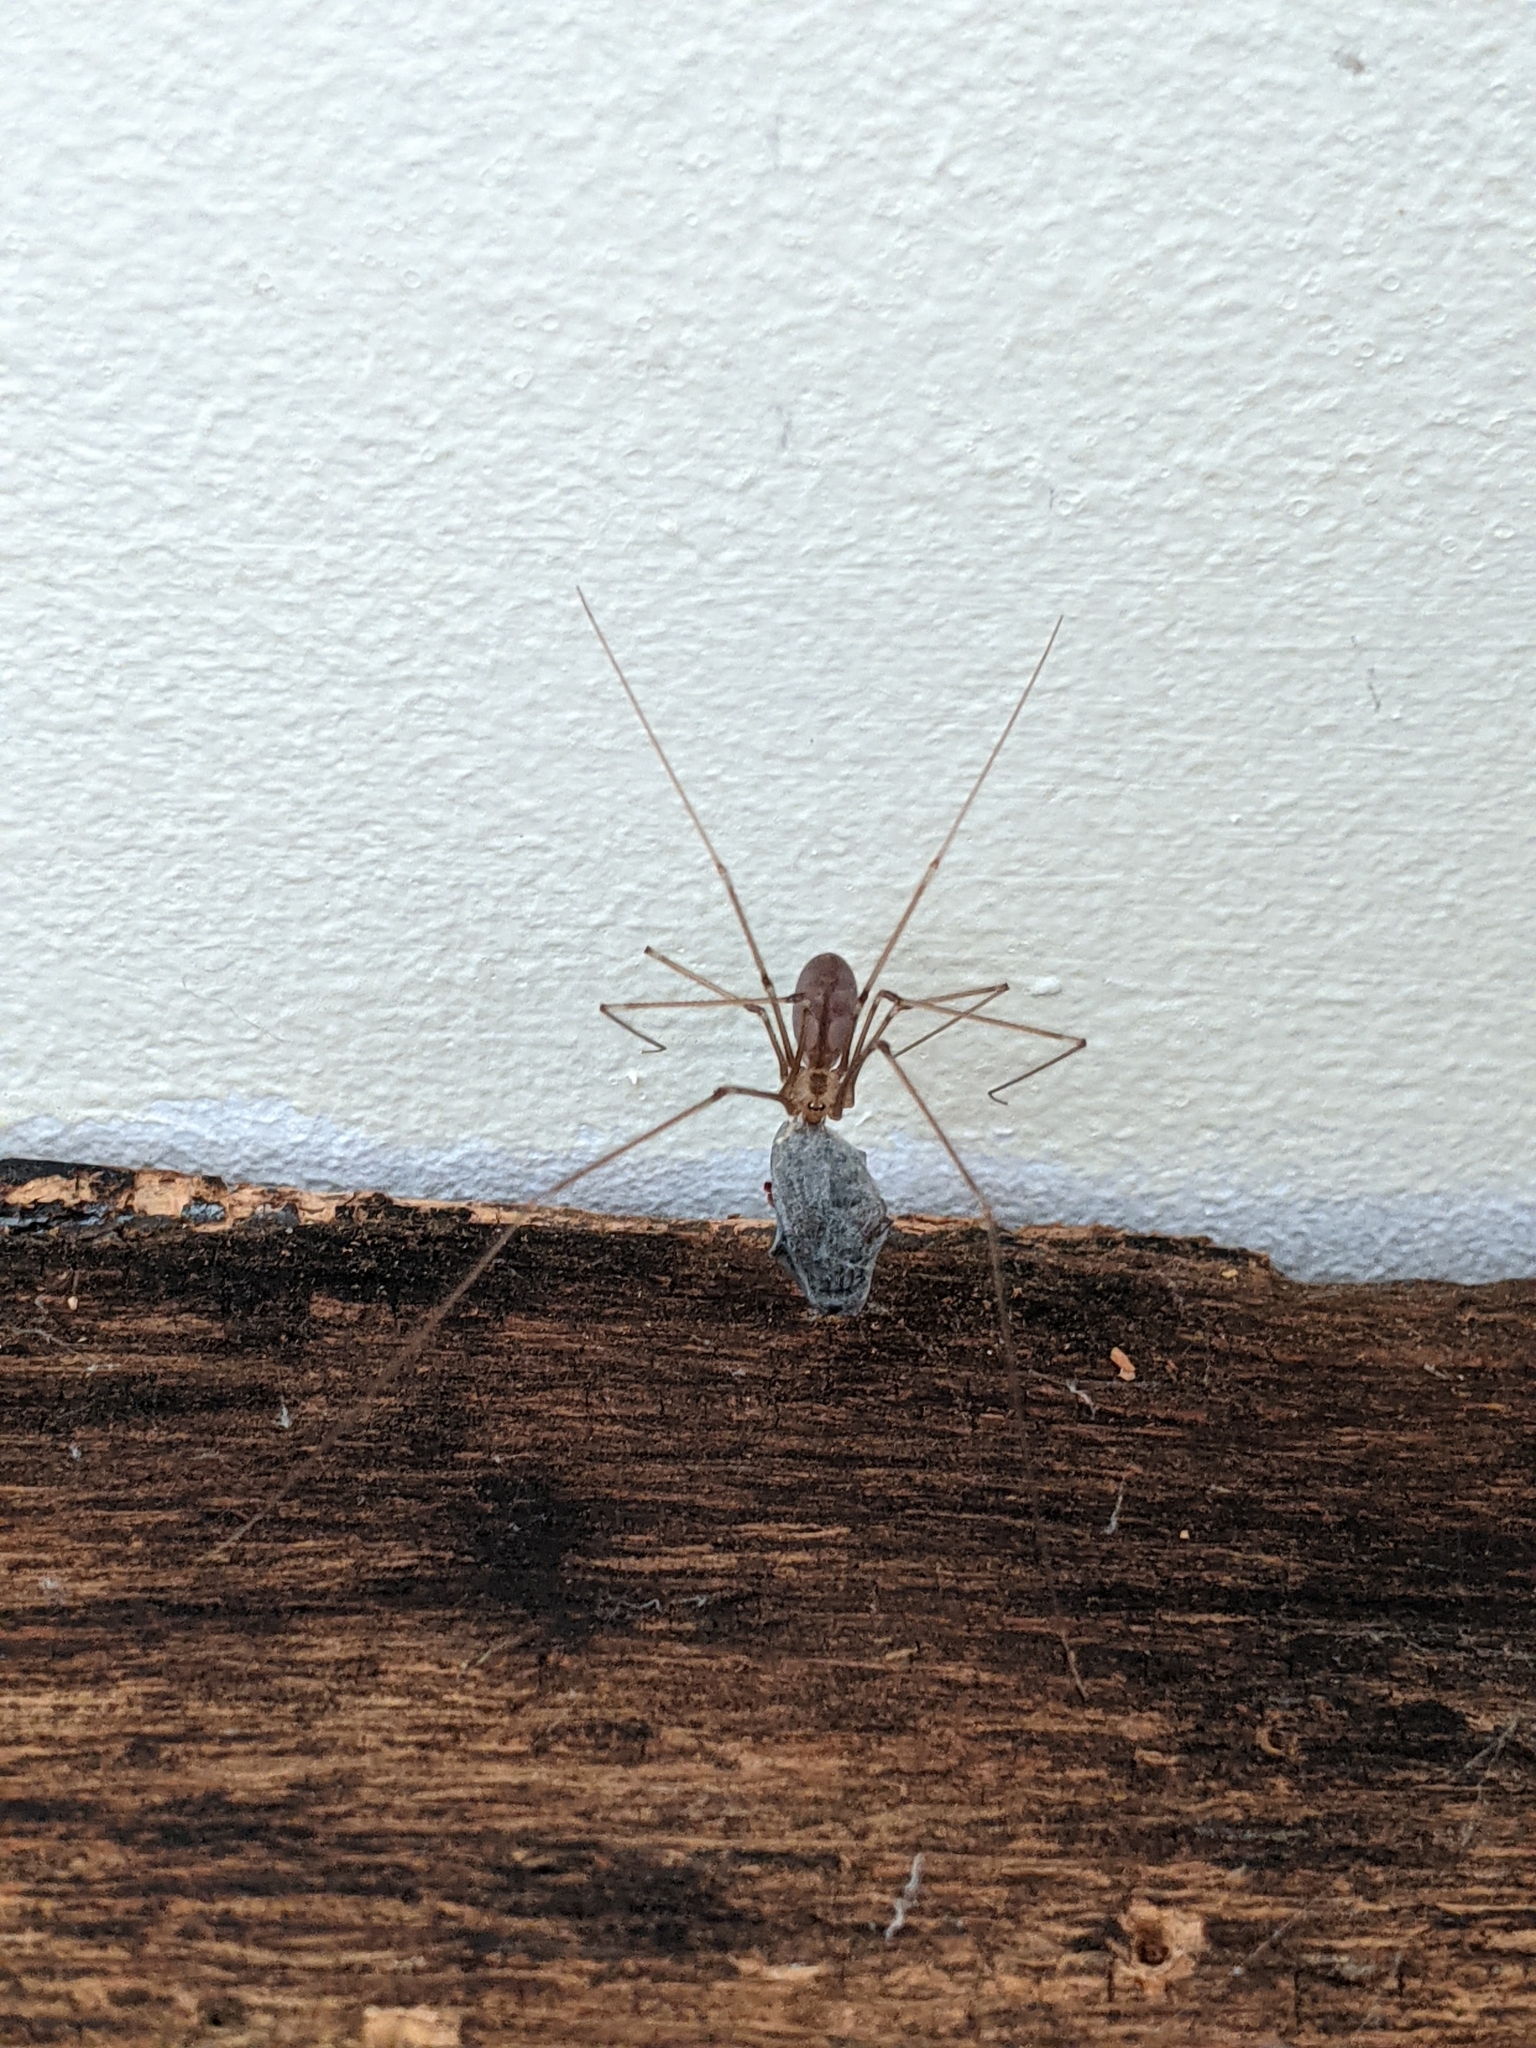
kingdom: Animalia
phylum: Arthropoda
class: Arachnida
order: Araneae
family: Pholcidae
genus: Pholcus
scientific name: Pholcus phalangioides
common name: Longbodied cellar spider
